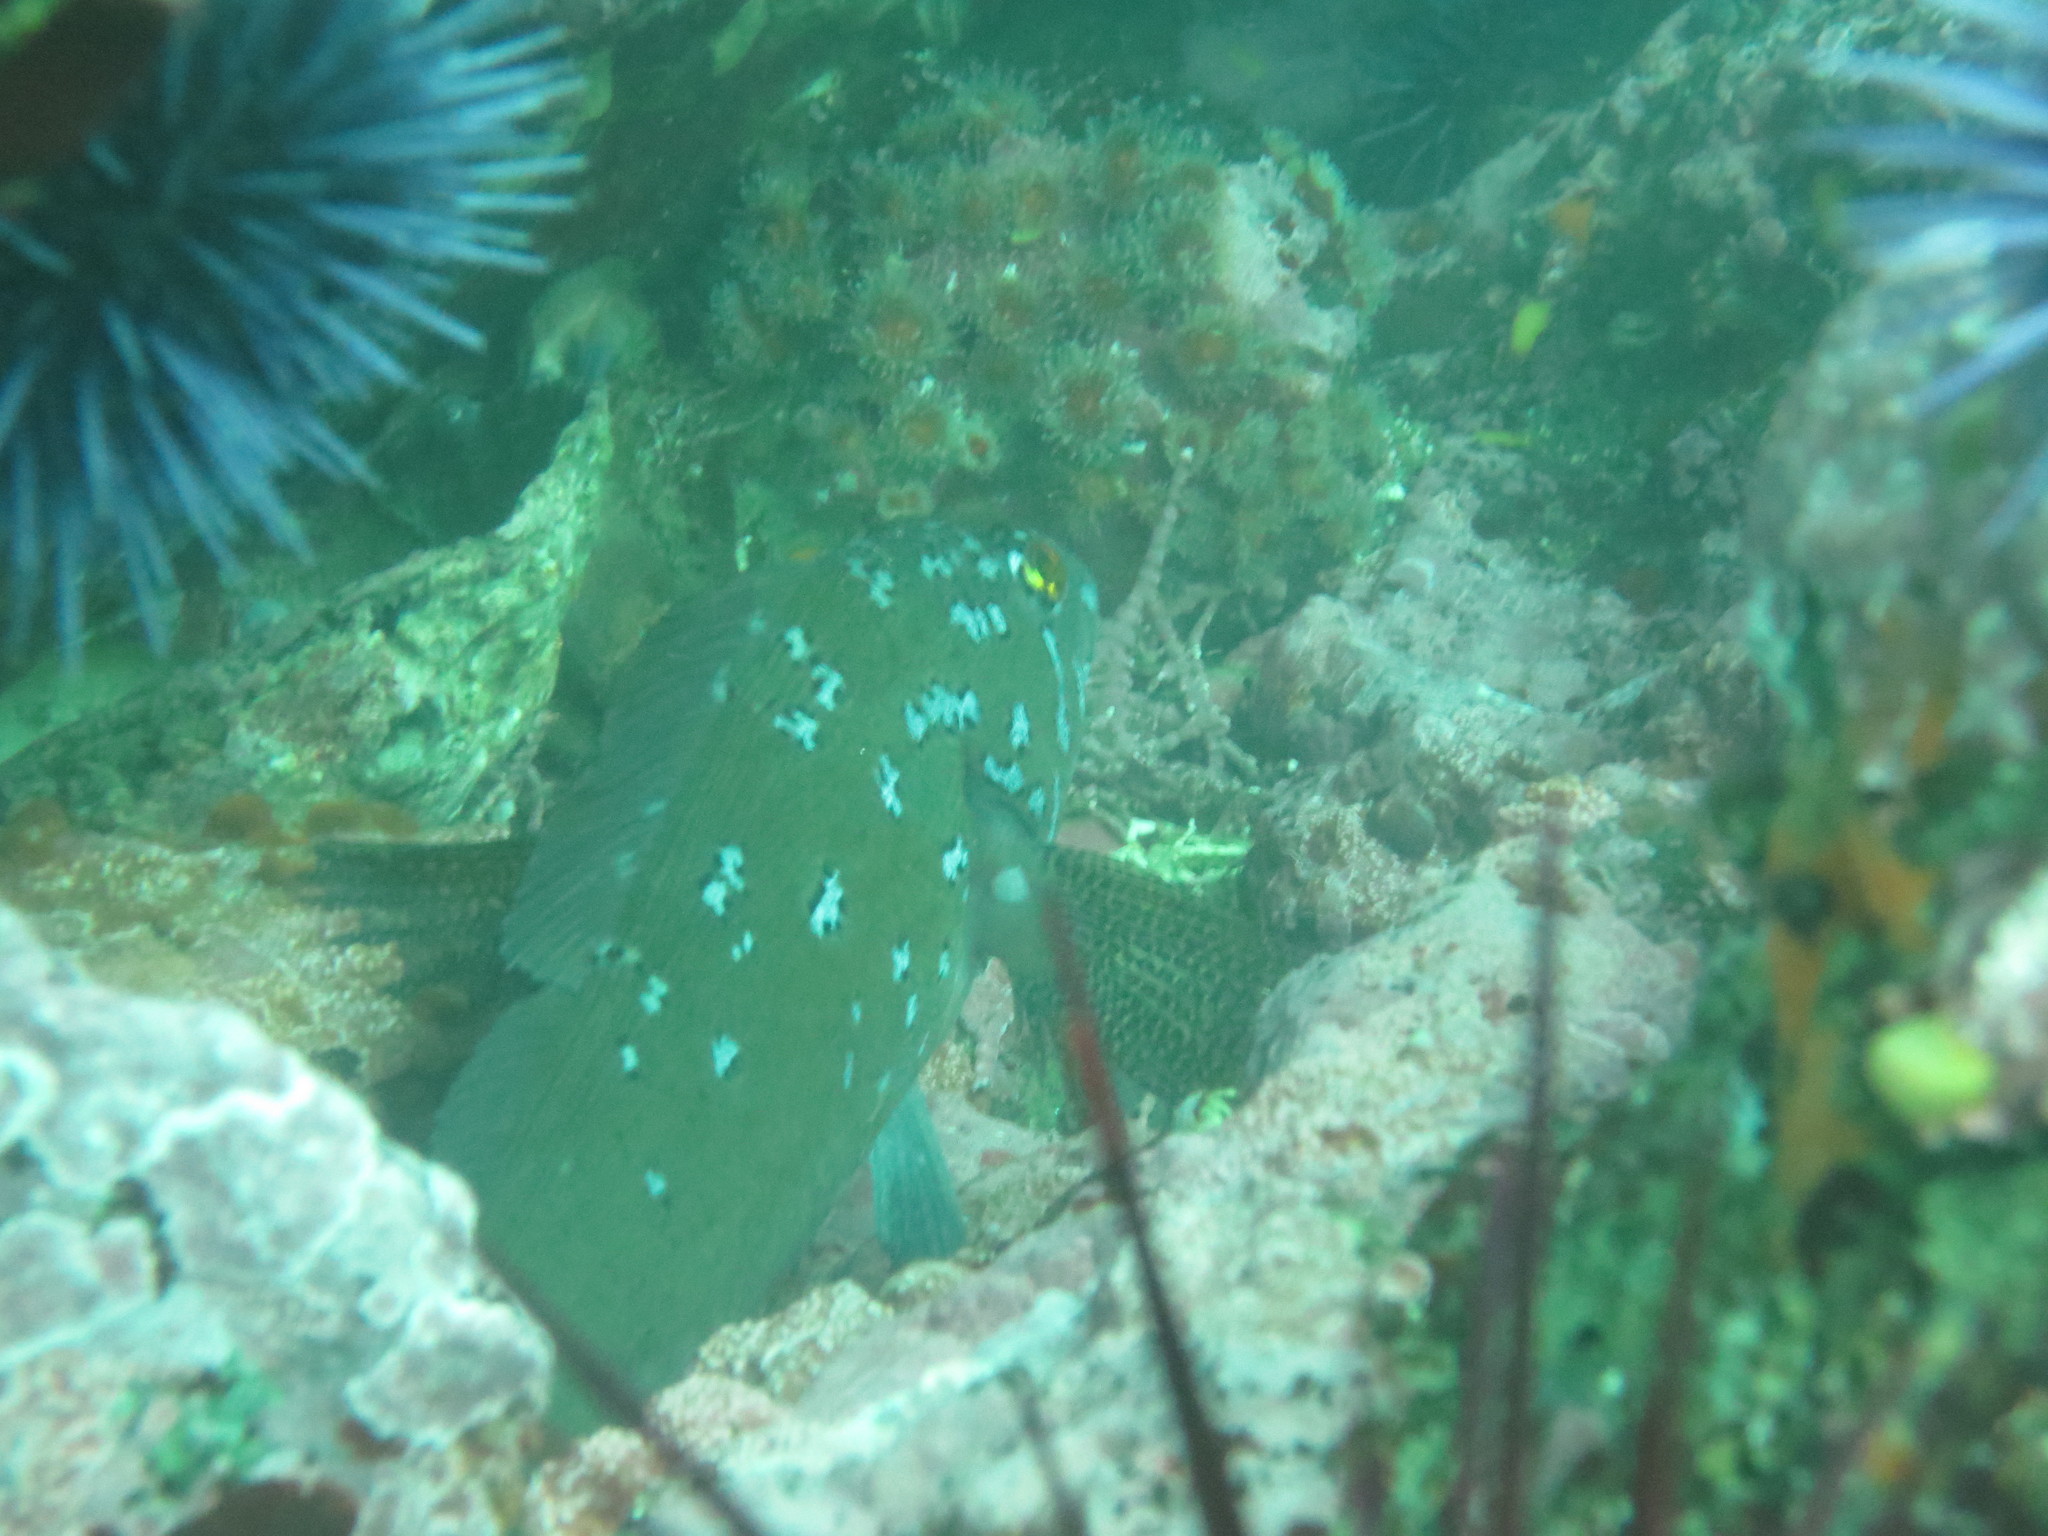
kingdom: Animalia
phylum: Chordata
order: Scorpaeniformes
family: Hexagrammidae
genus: Hexagrammos
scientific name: Hexagrammos decagrammus
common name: Kelp greenling
